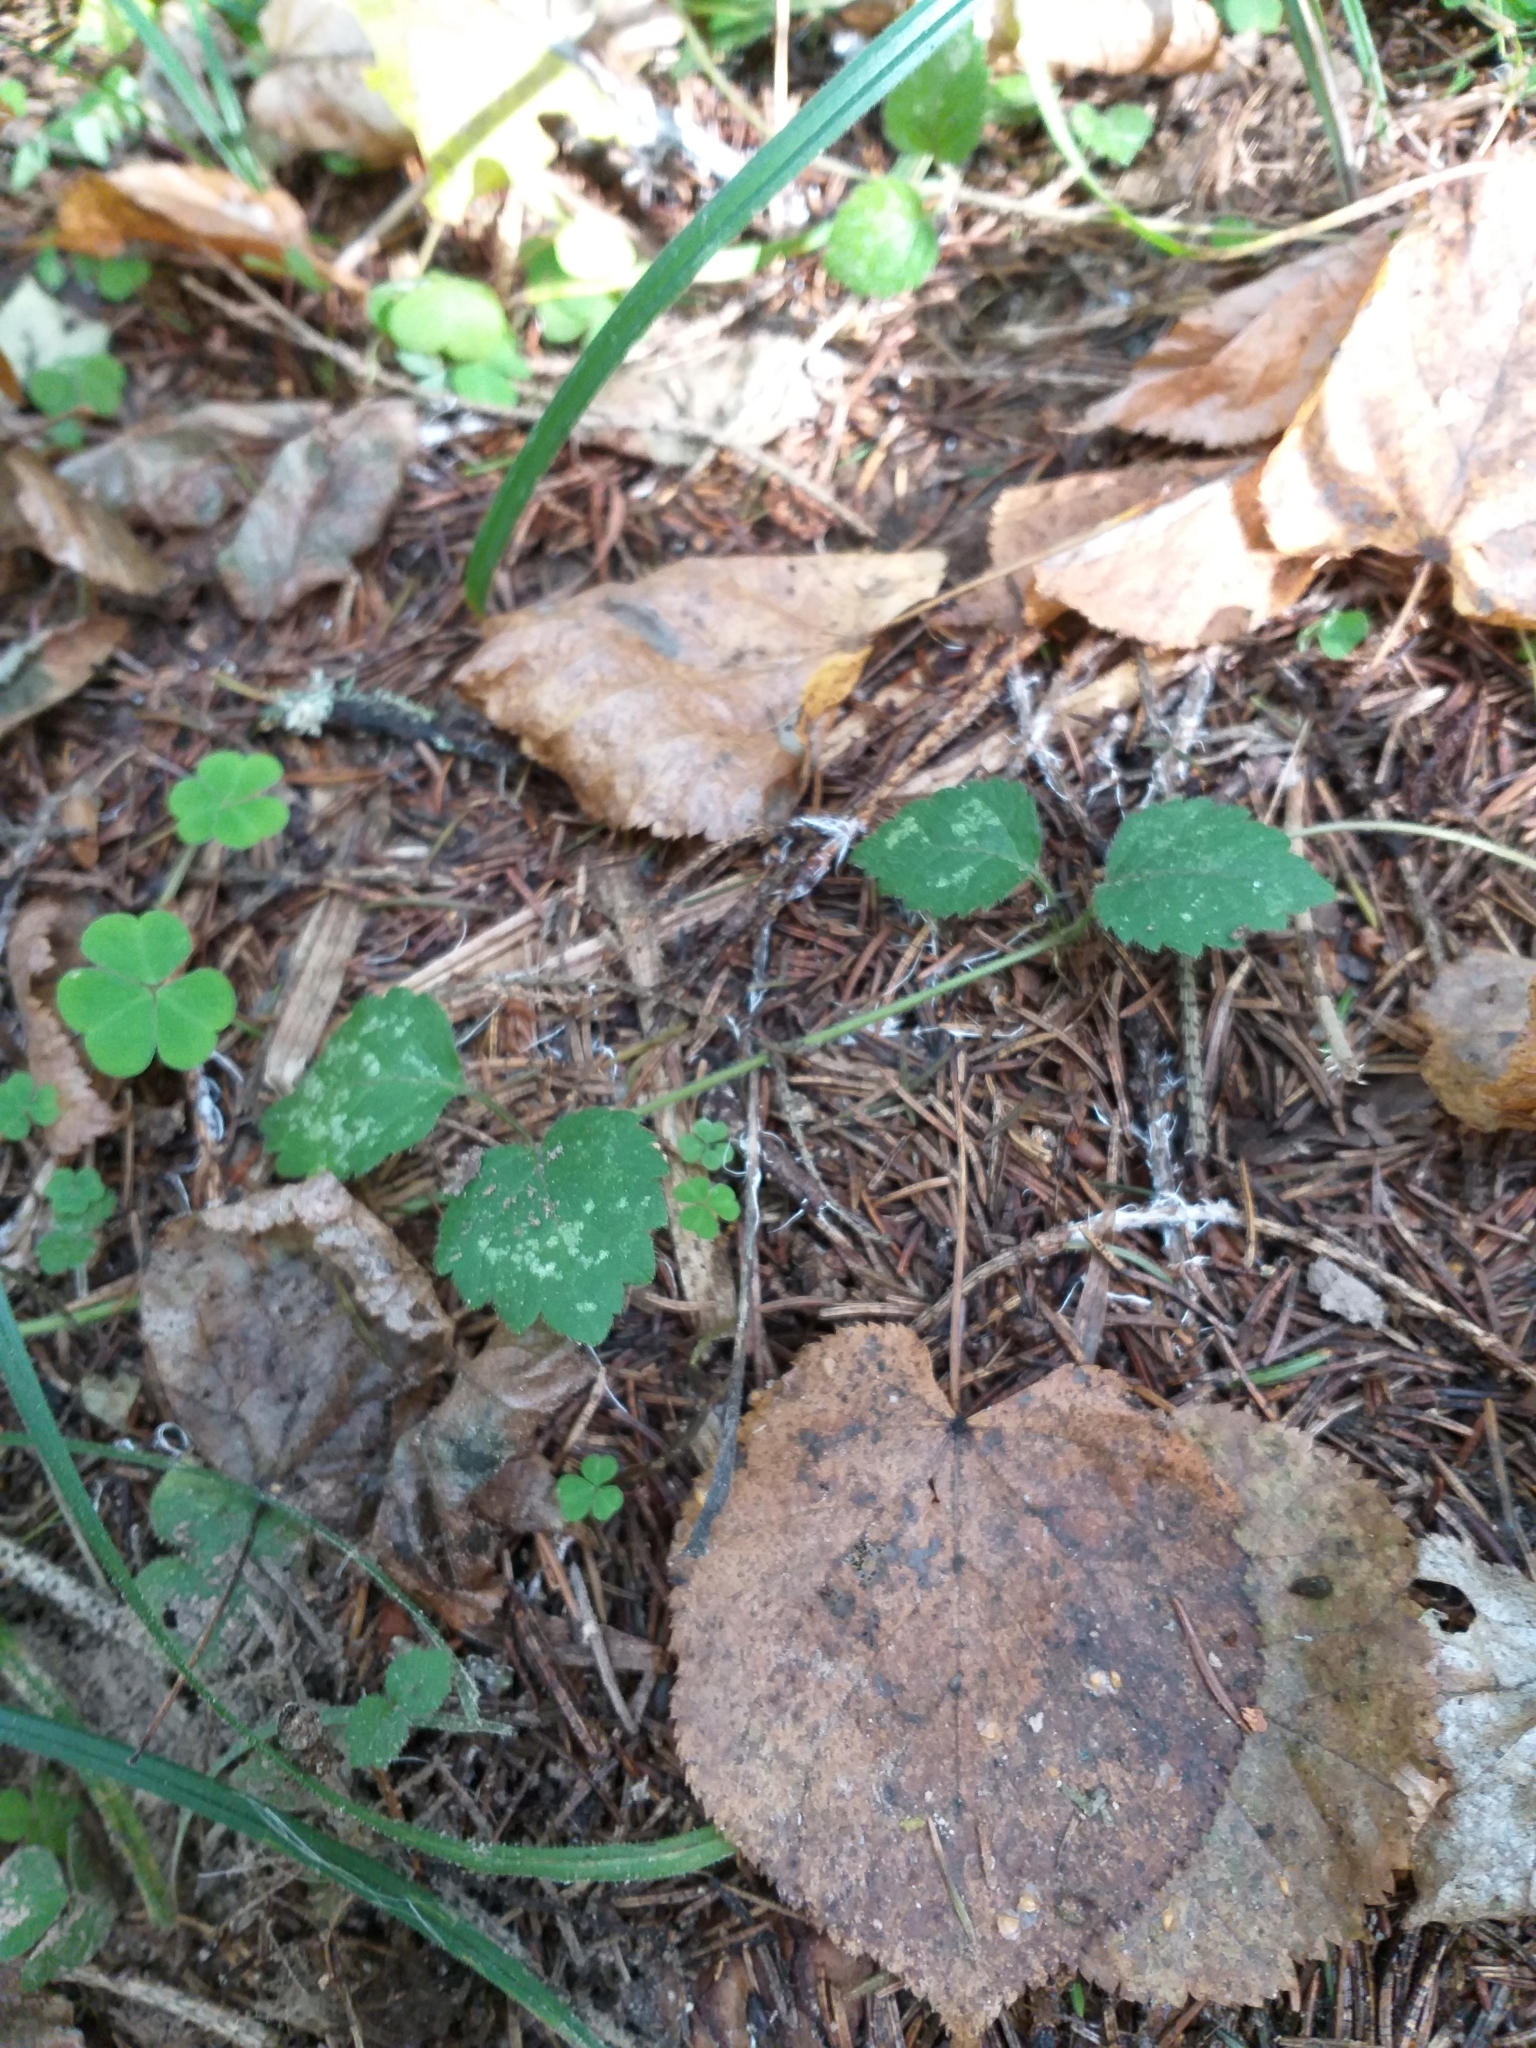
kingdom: Plantae
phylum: Tracheophyta
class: Magnoliopsida
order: Lamiales
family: Lamiaceae
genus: Lamium
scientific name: Lamium galeobdolon
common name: Yellow archangel
